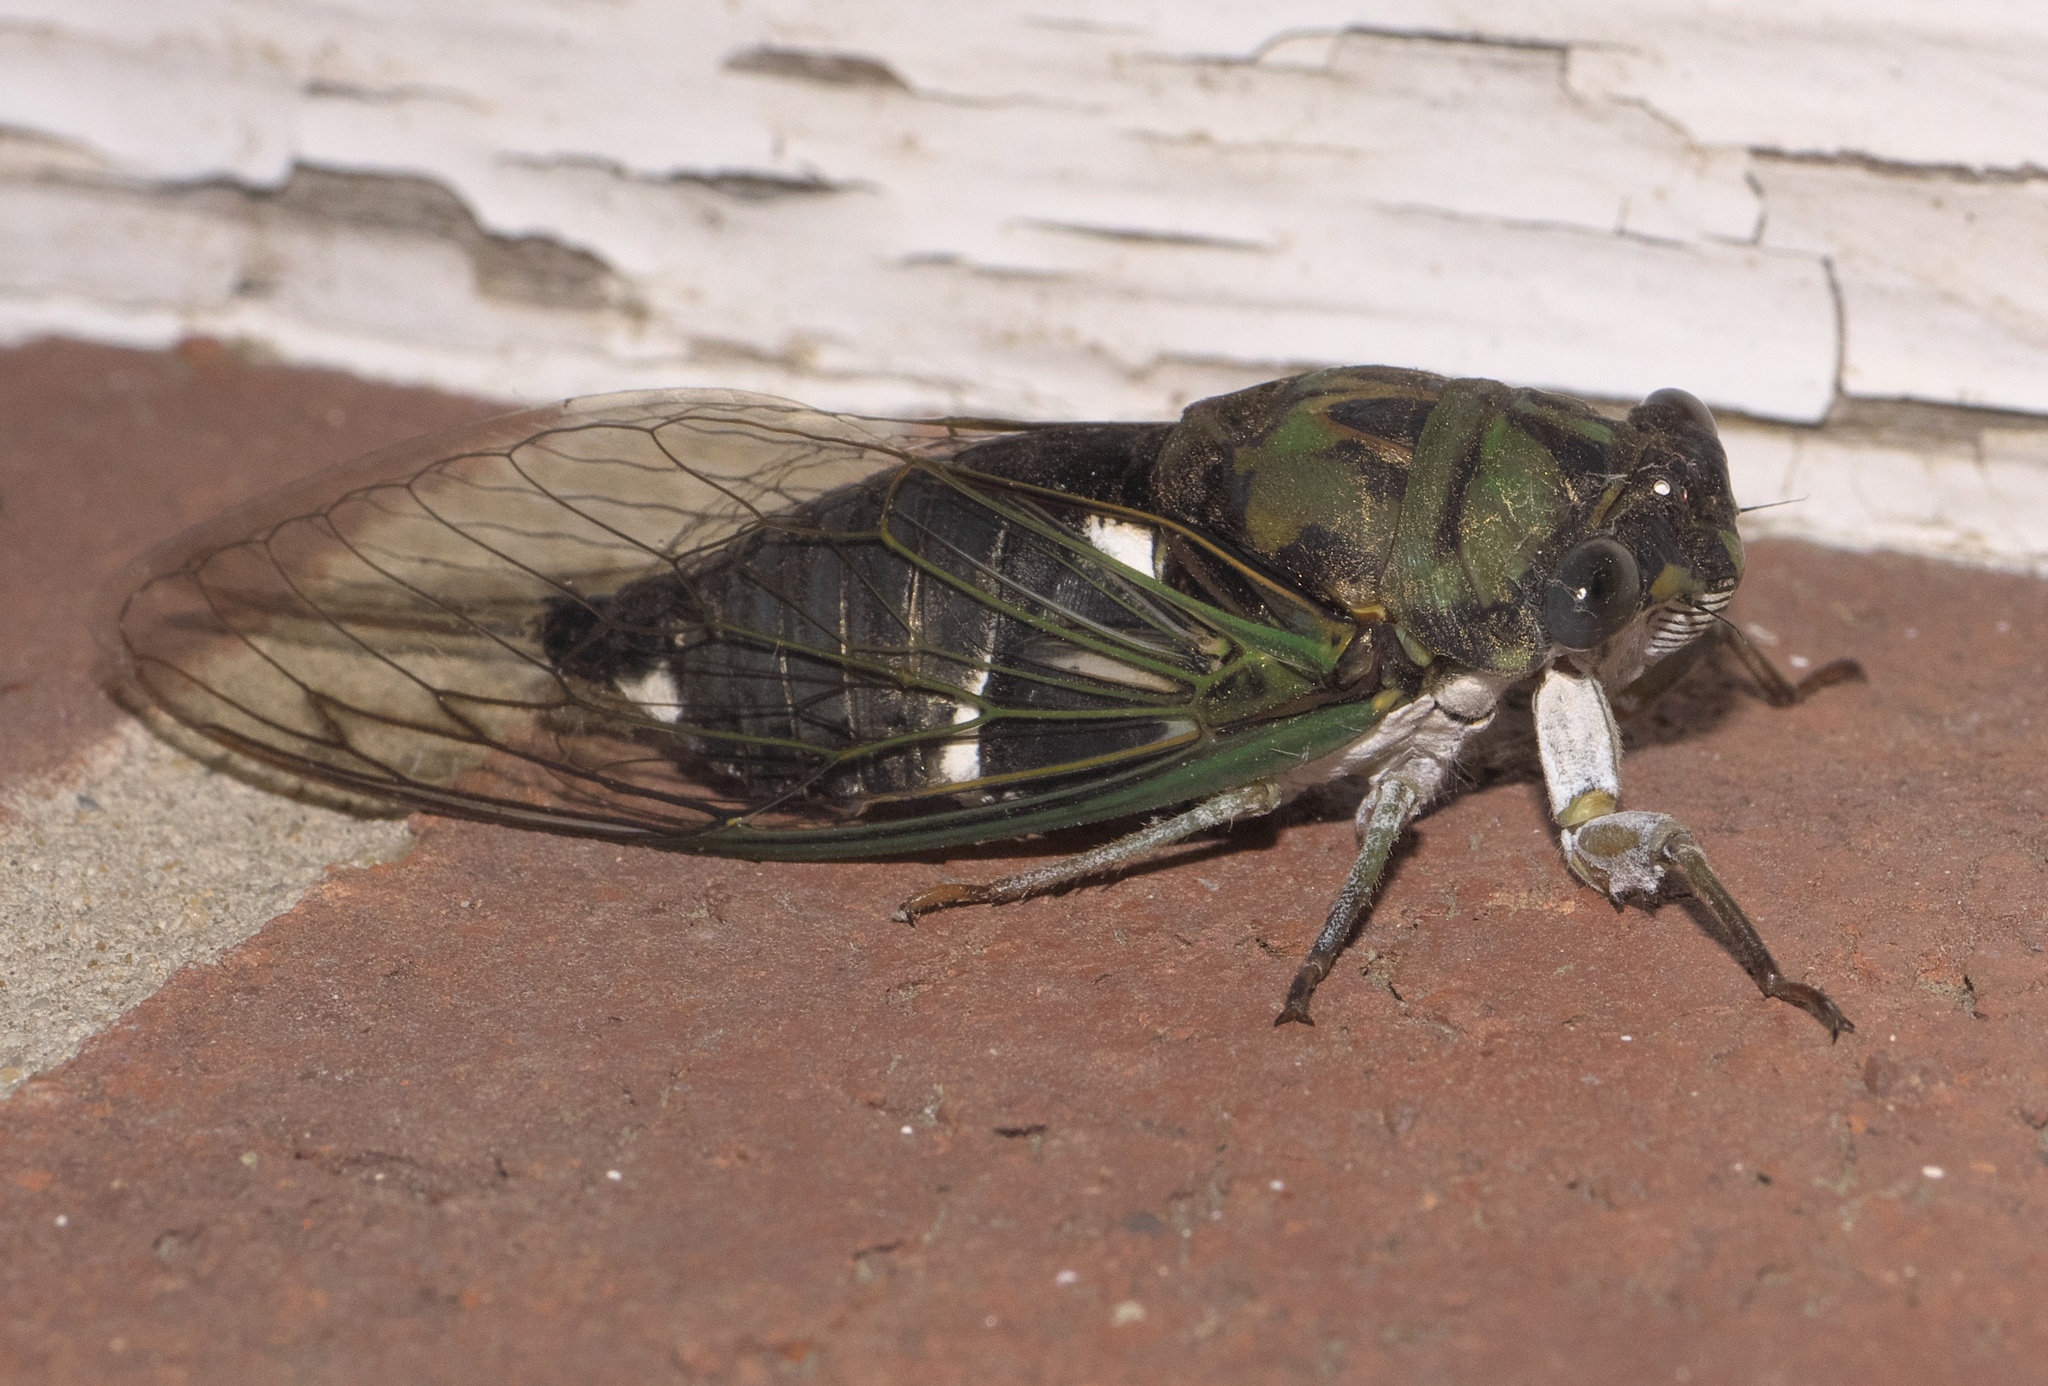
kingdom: Animalia
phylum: Arthropoda
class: Insecta
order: Hemiptera
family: Cicadidae
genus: Neotibicen
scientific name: Neotibicen pruinosus
